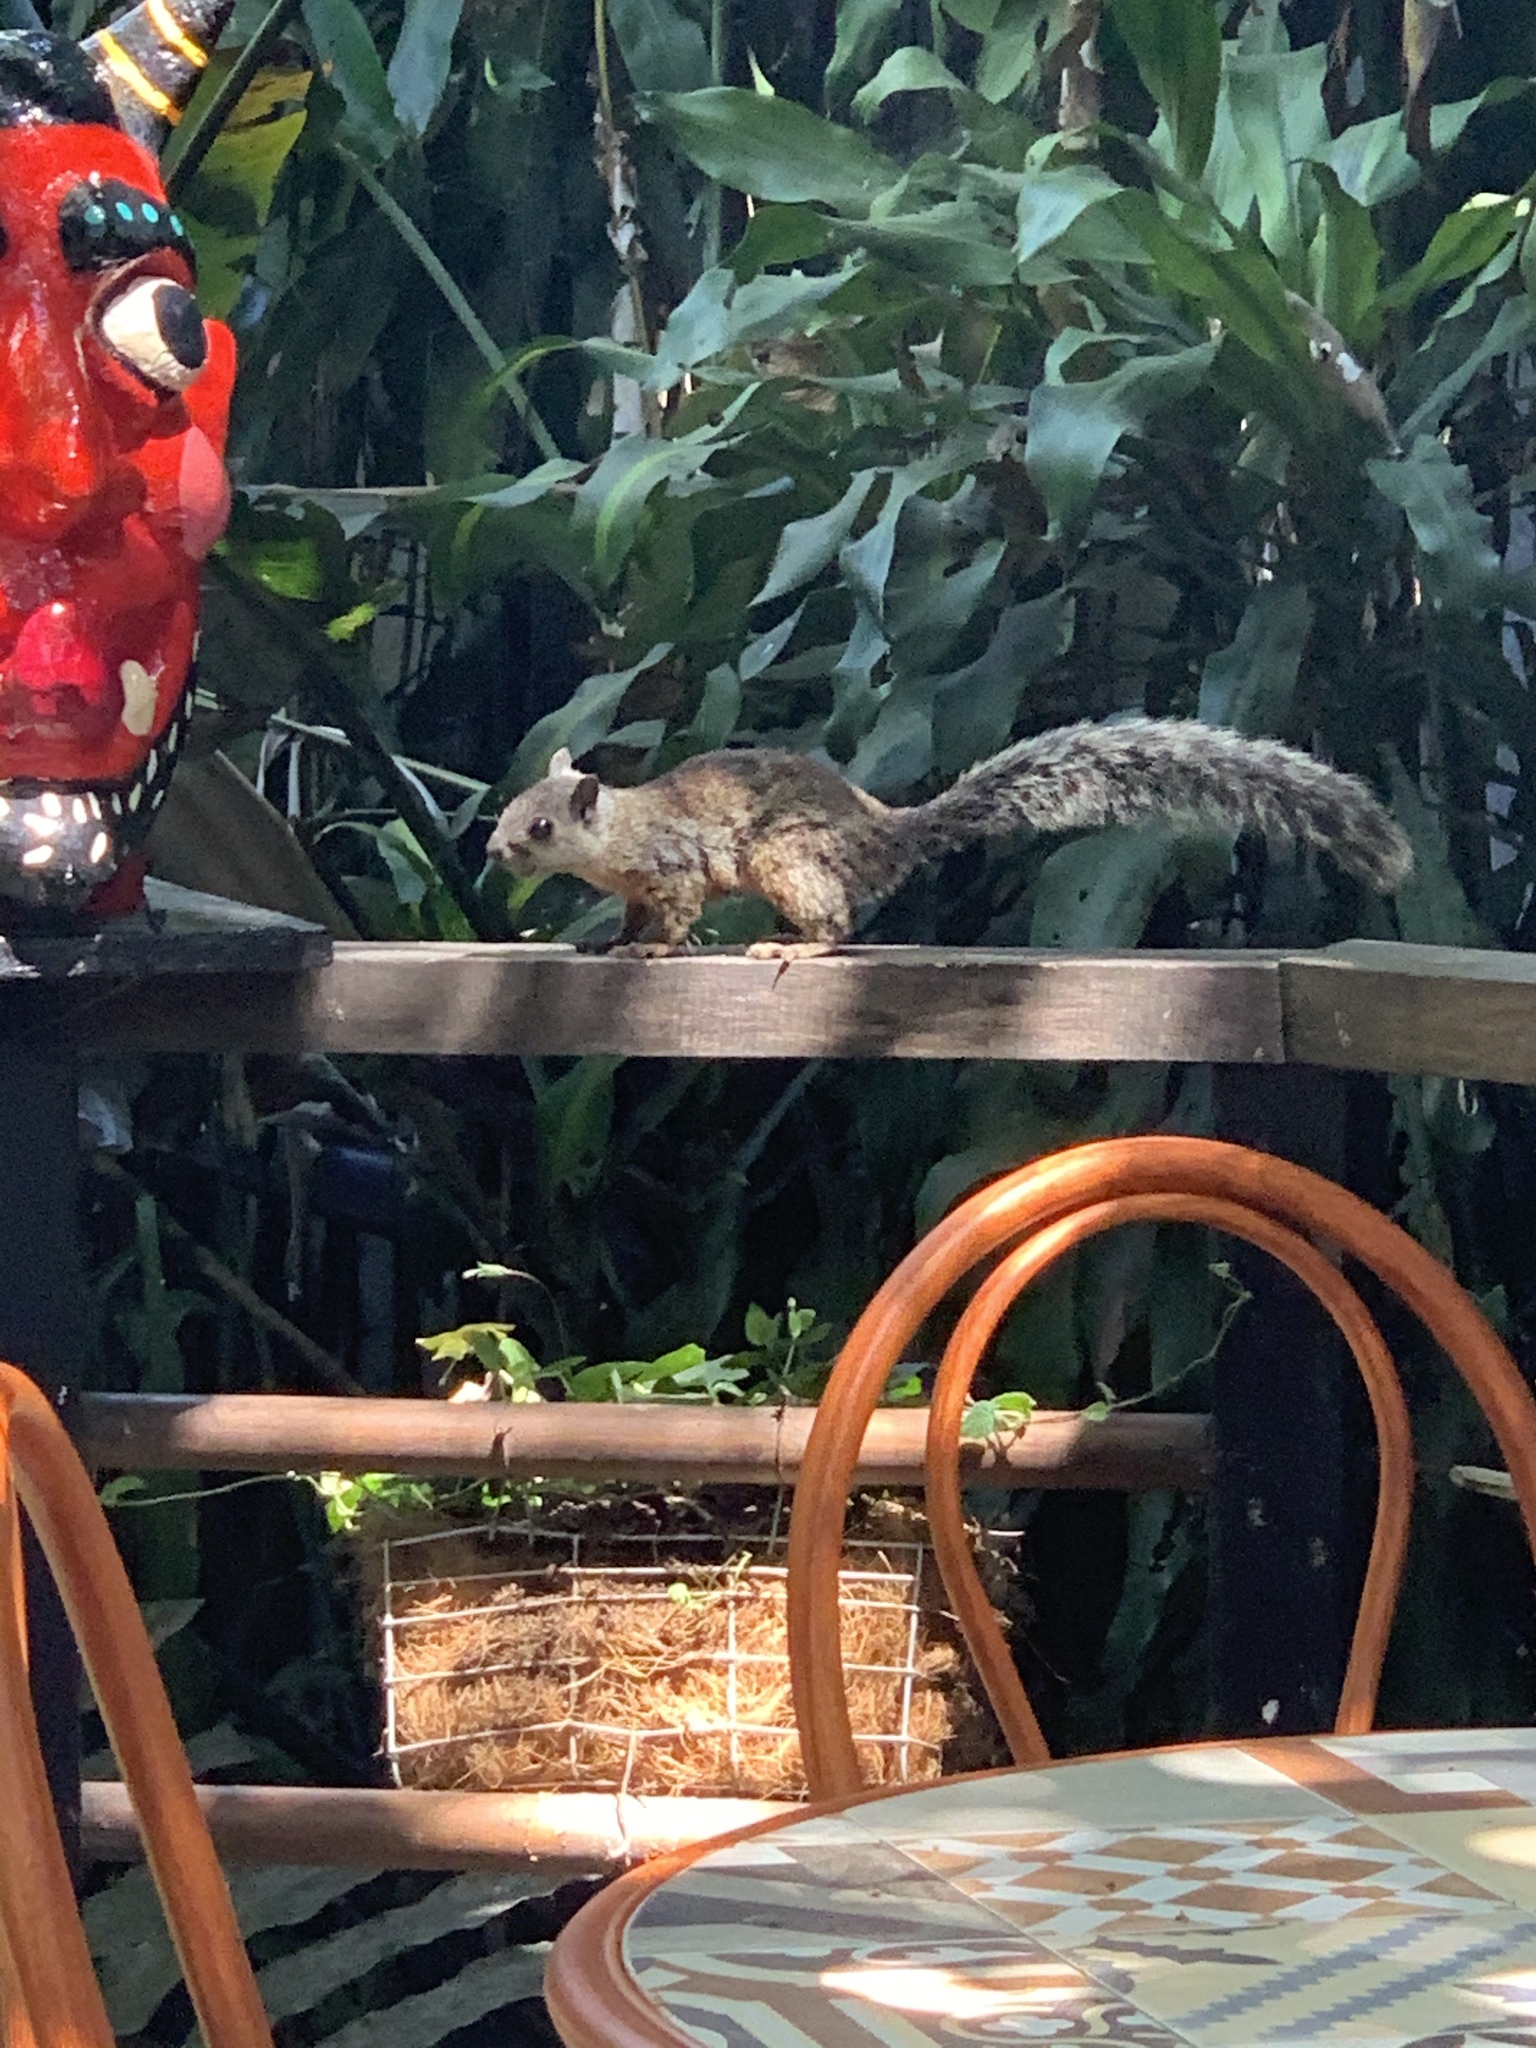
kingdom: Animalia
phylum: Chordata
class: Mammalia
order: Rodentia
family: Sciuridae
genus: Sciurus
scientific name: Sciurus variegatoides
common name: Variegated squirrel
